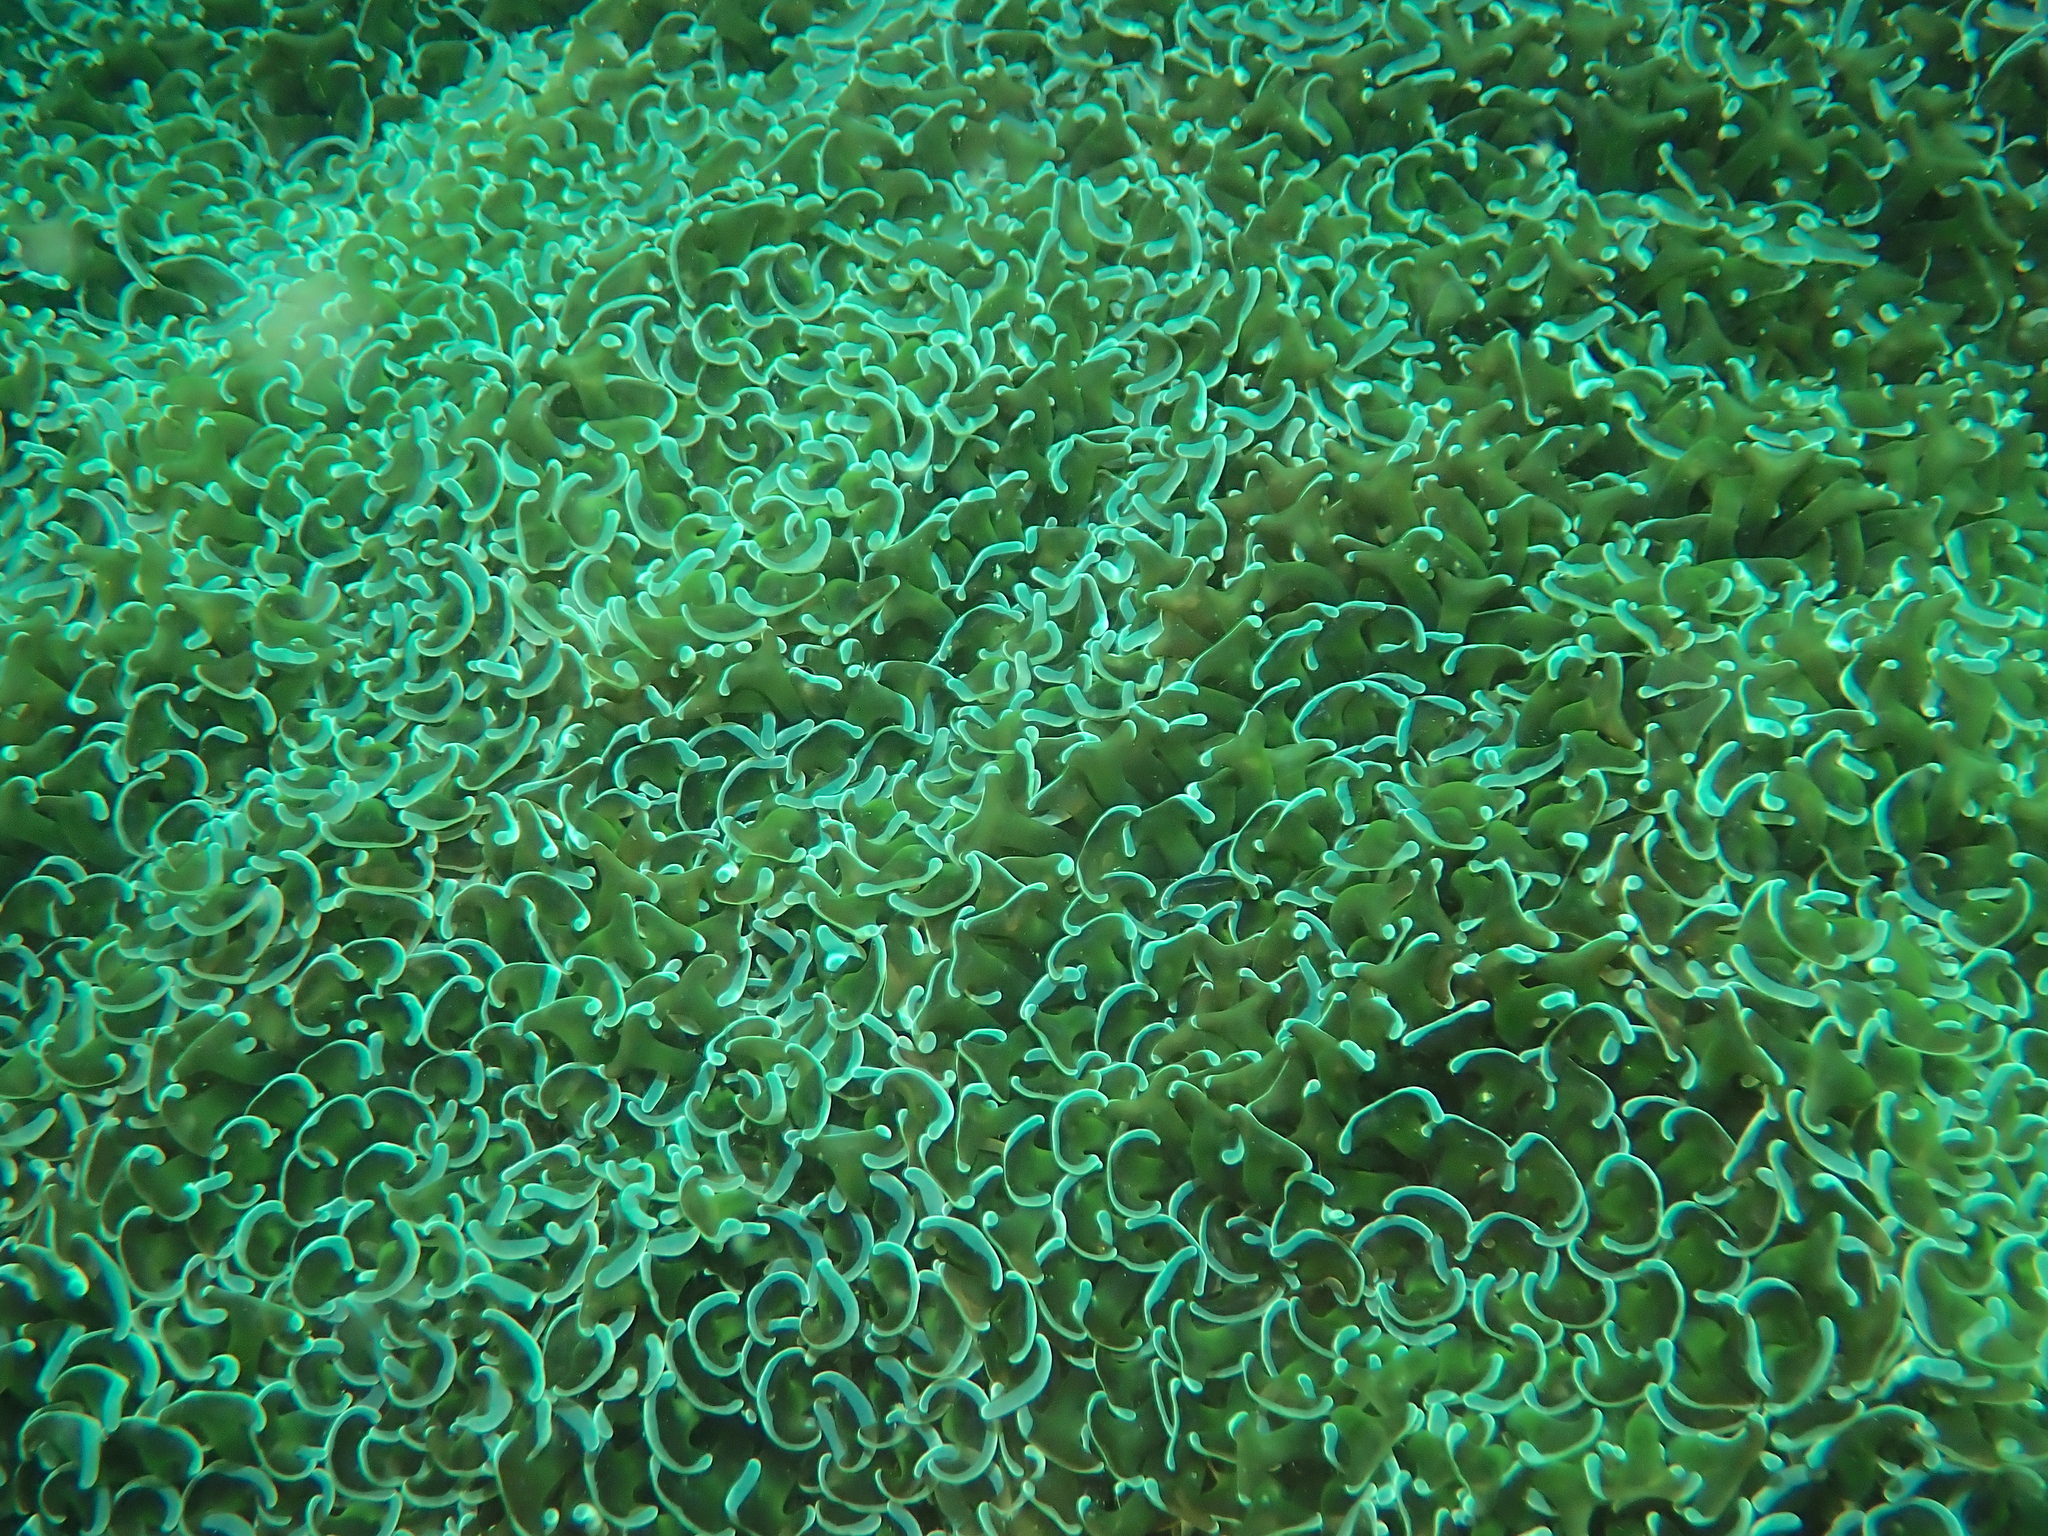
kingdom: Animalia
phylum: Cnidaria
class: Anthozoa
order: Scleractinia
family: Euphylliidae
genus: Fimbriaphyllia
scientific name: Fimbriaphyllia ancora
